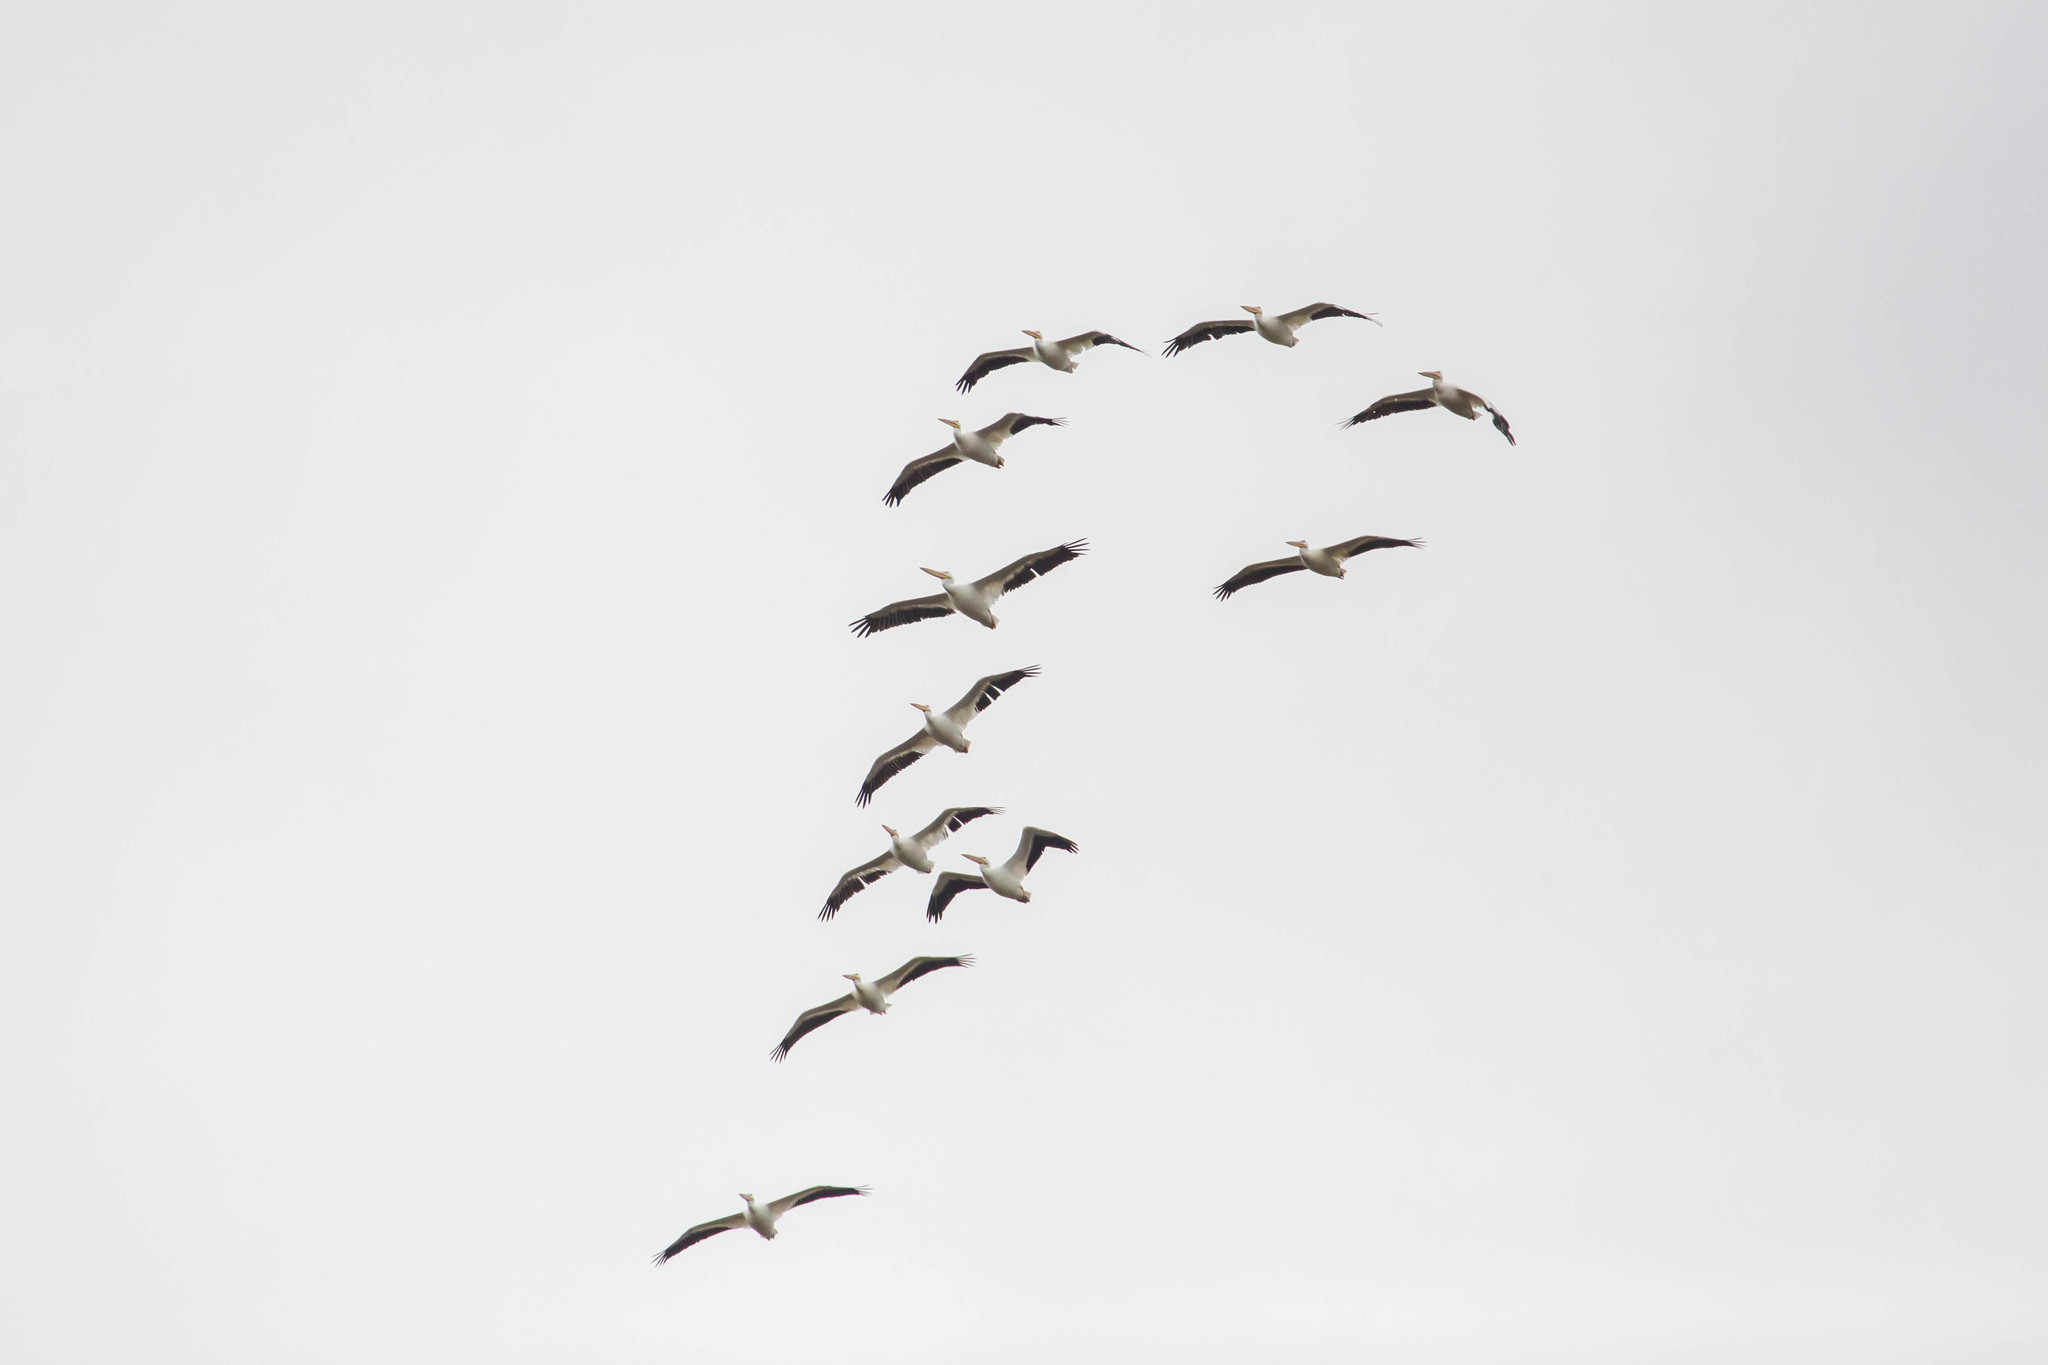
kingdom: Animalia
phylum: Chordata
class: Aves
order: Pelecaniformes
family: Pelecanidae
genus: Pelecanus
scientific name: Pelecanus erythrorhynchos
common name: American white pelican
